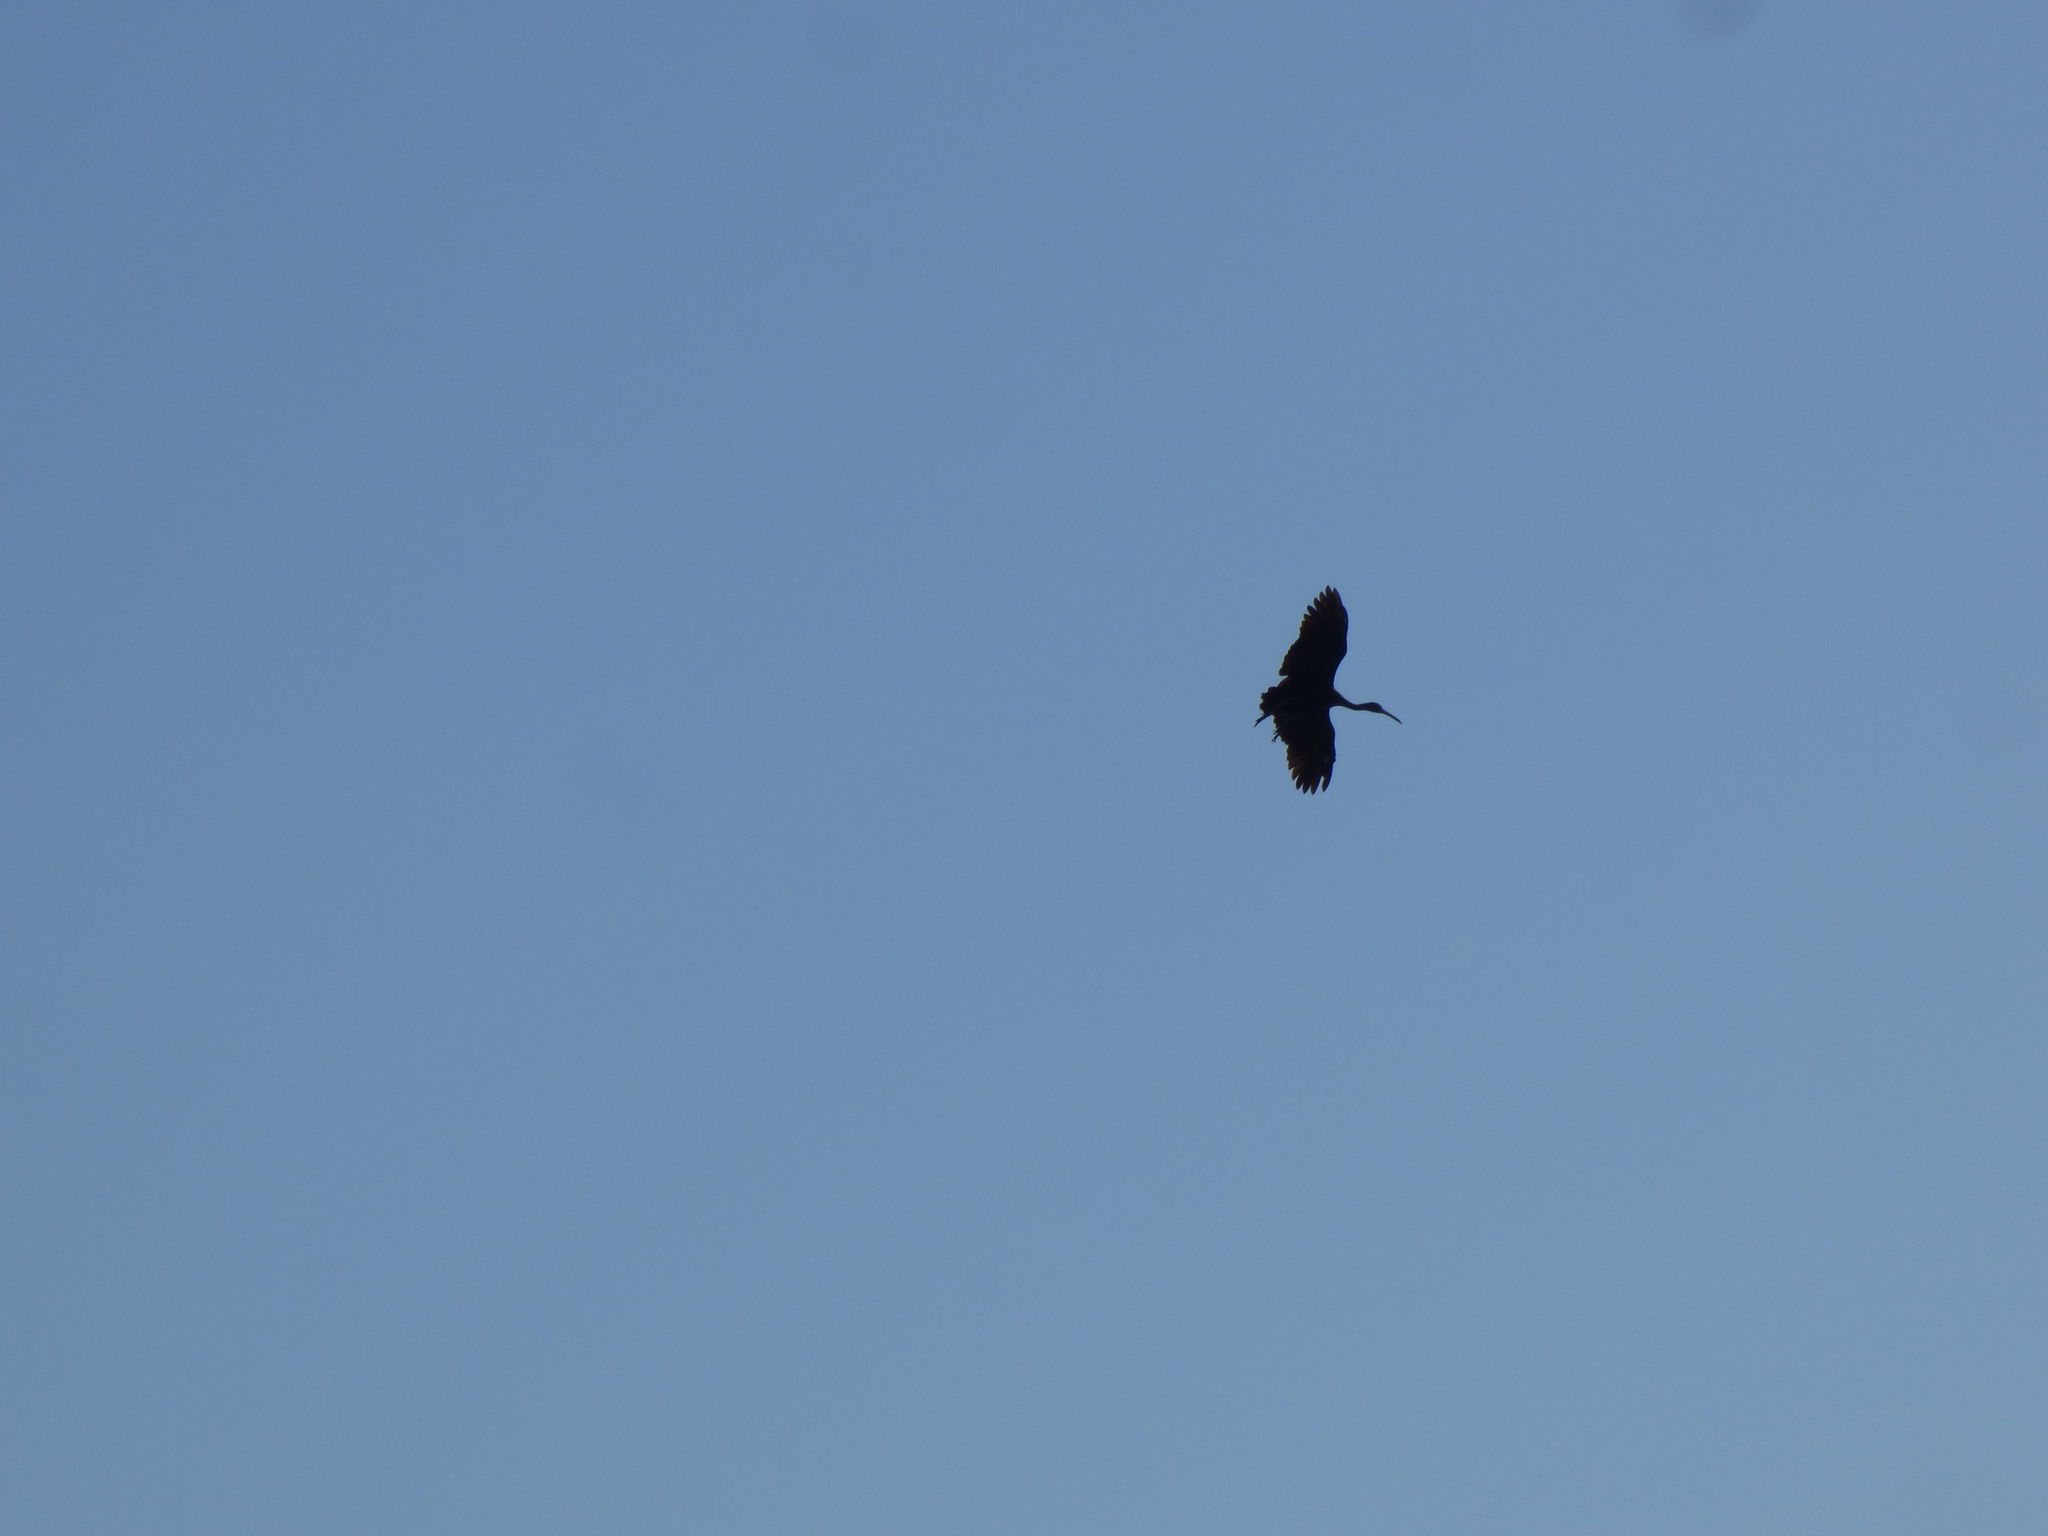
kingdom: Animalia
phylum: Chordata
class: Aves
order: Gruiformes
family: Aramidae
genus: Aramus
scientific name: Aramus guarauna
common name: Limpkin
